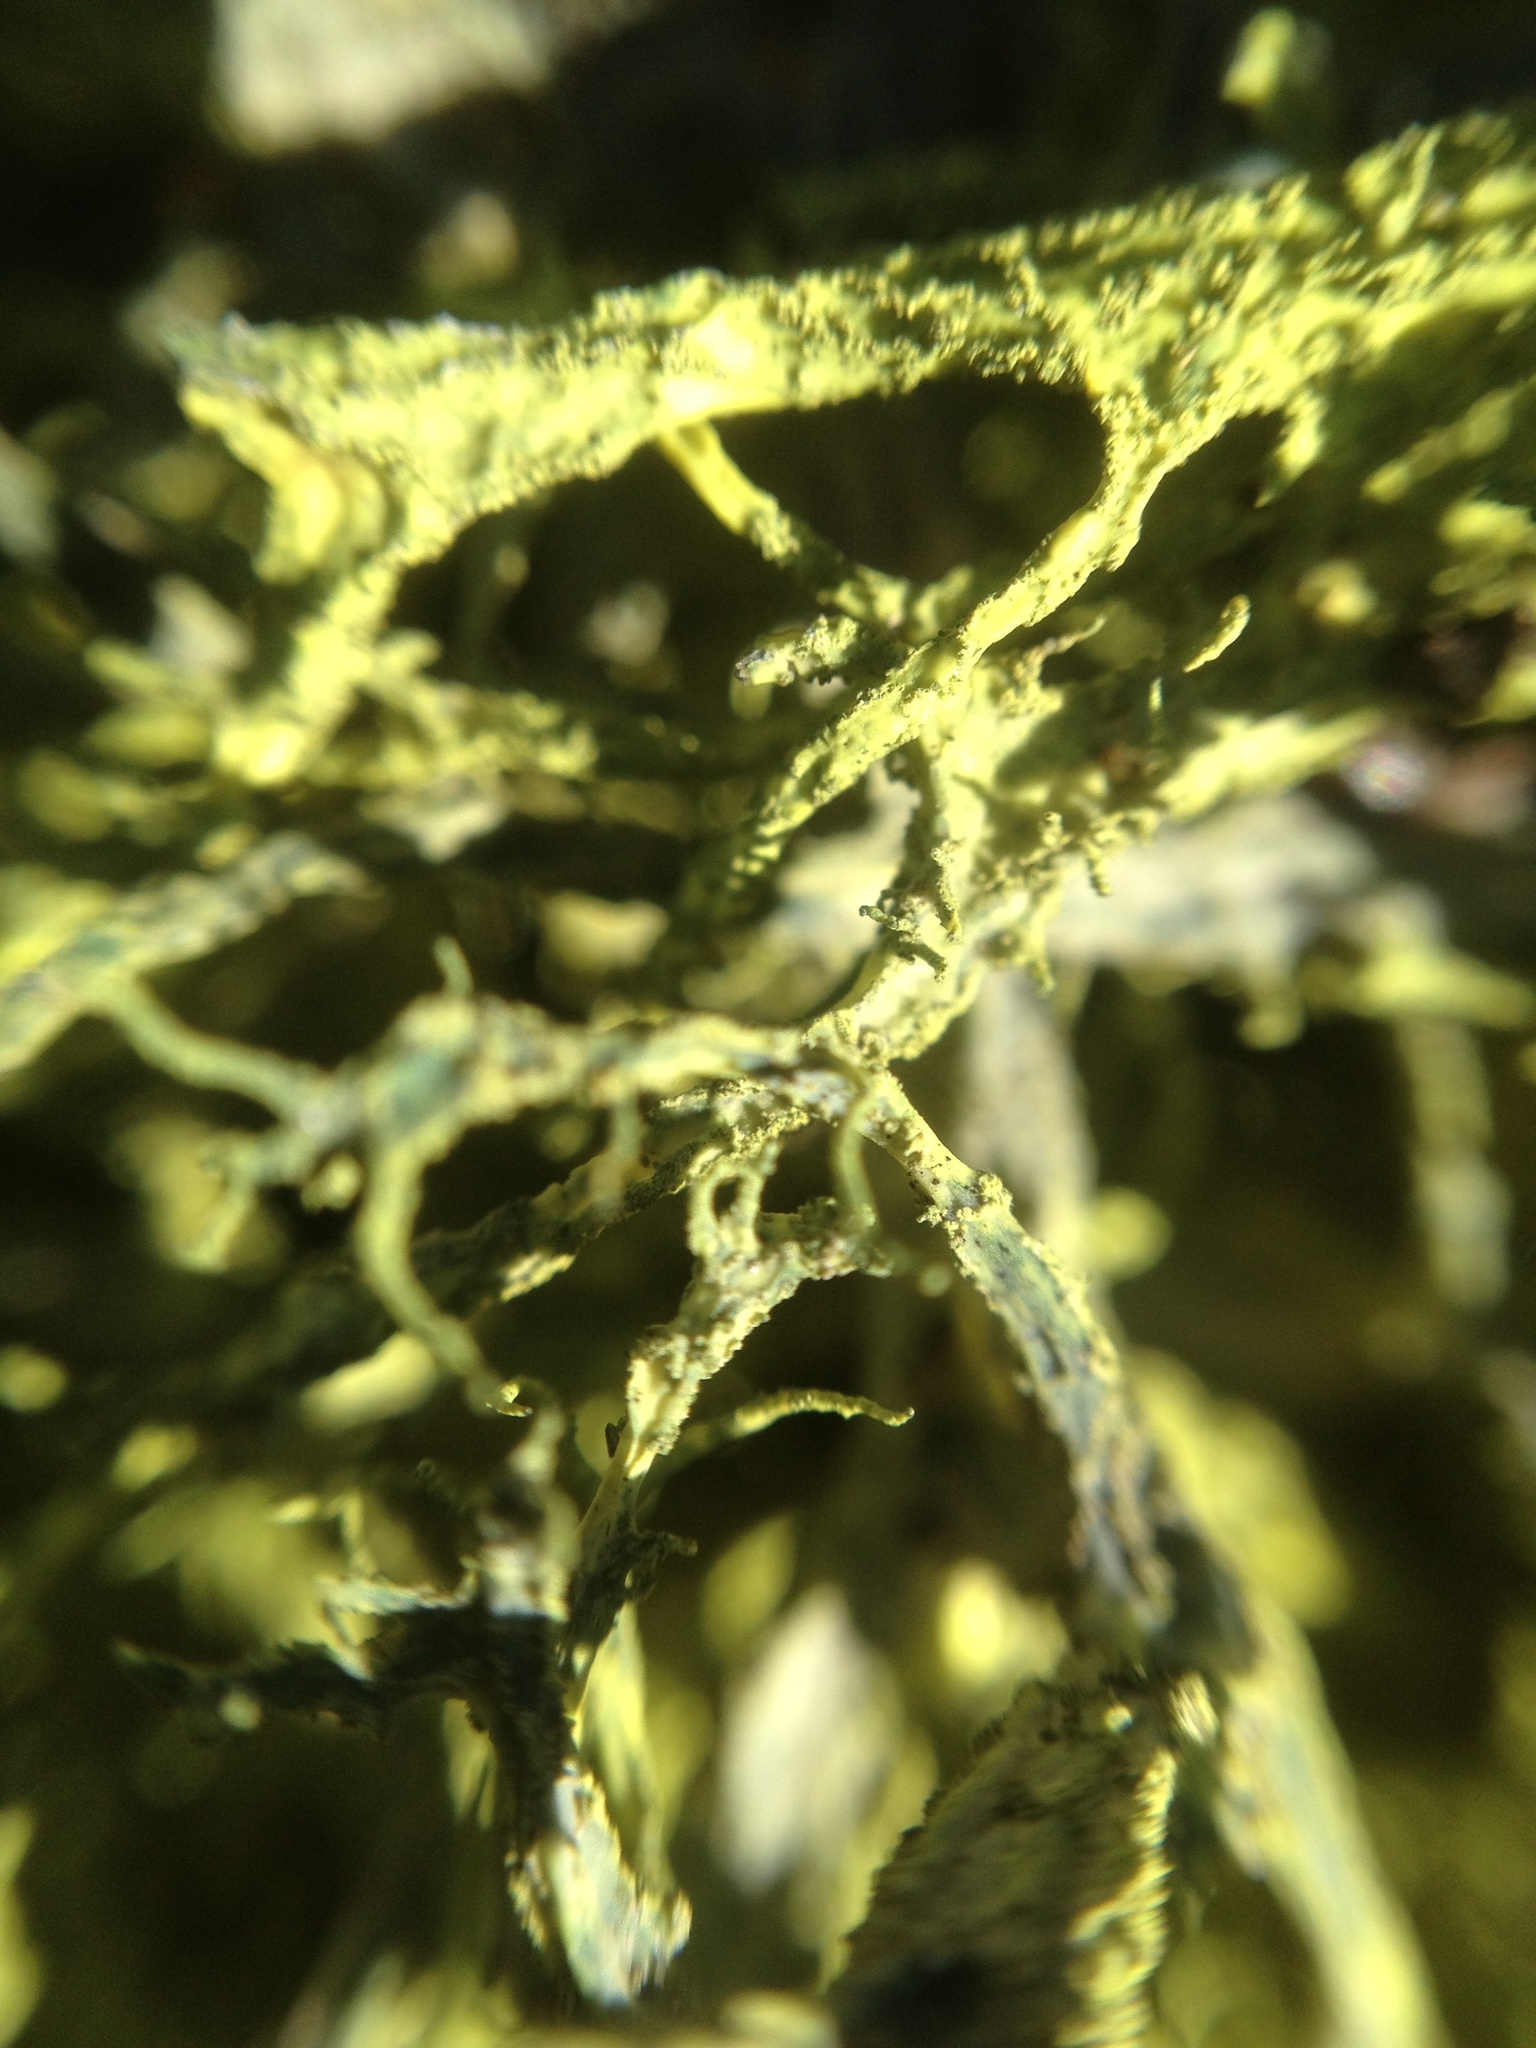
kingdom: Fungi
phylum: Ascomycota
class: Lecanoromycetes
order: Lecanorales
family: Parmeliaceae
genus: Letharia
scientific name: Letharia vulpina
